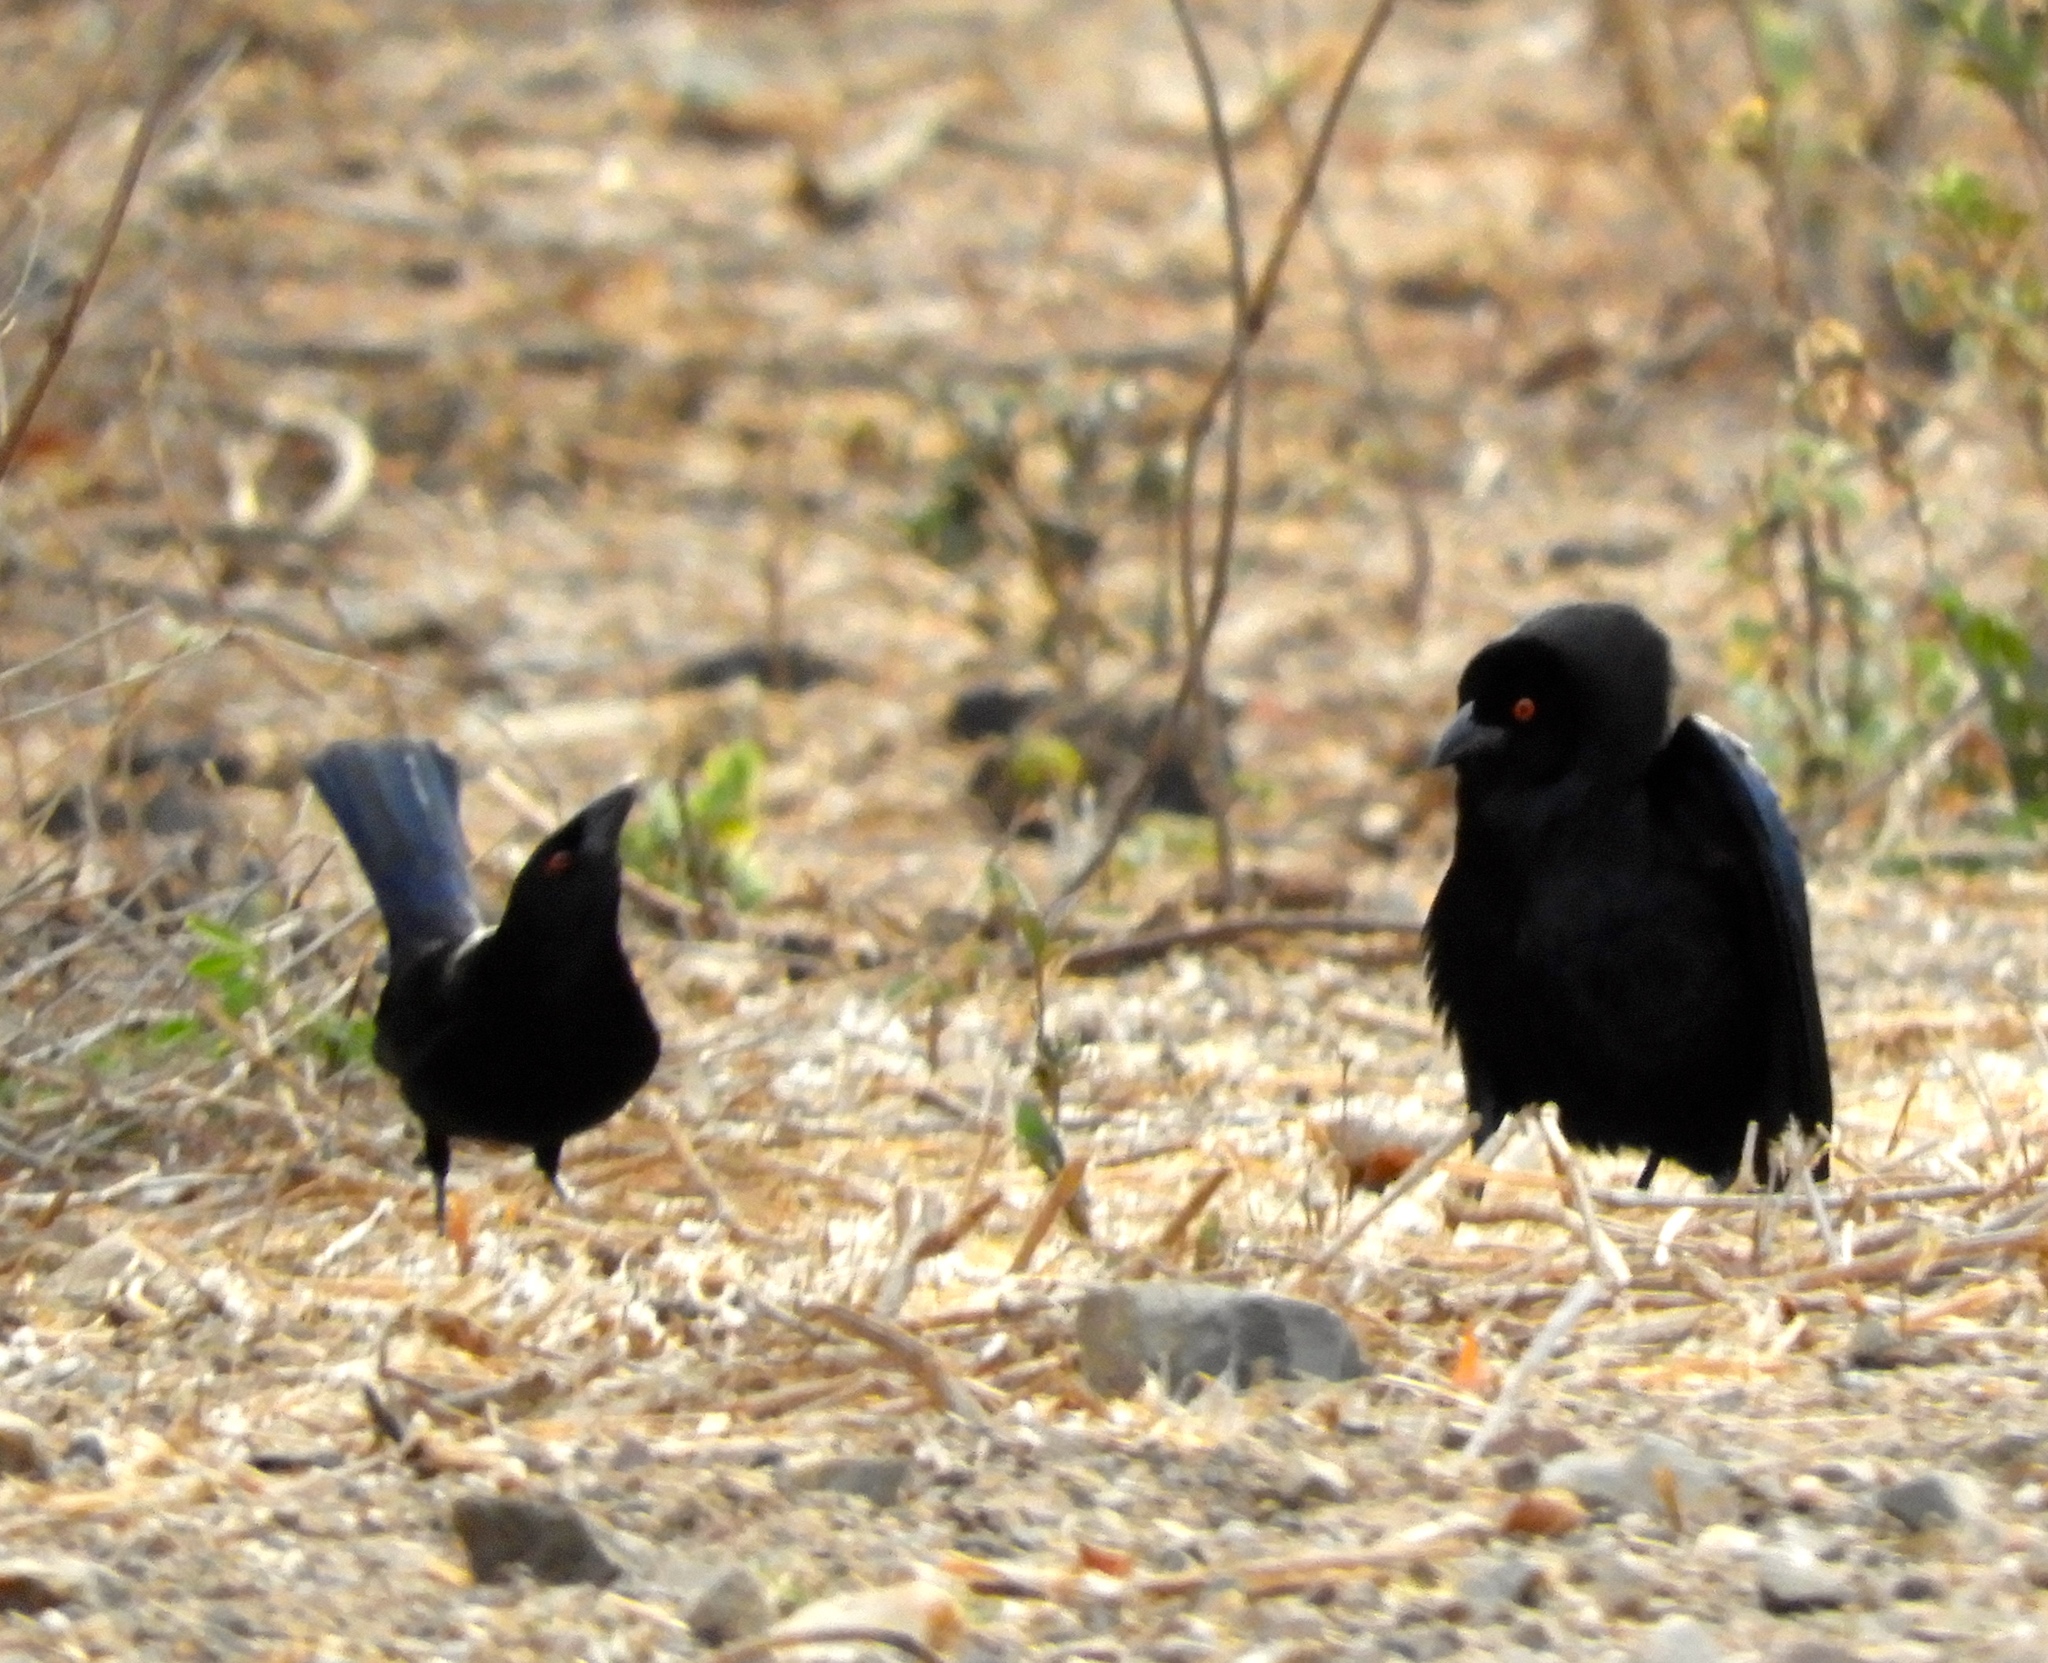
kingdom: Animalia
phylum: Chordata
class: Aves
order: Passeriformes
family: Icteridae
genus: Molothrus
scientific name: Molothrus aeneus
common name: Bronzed cowbird
